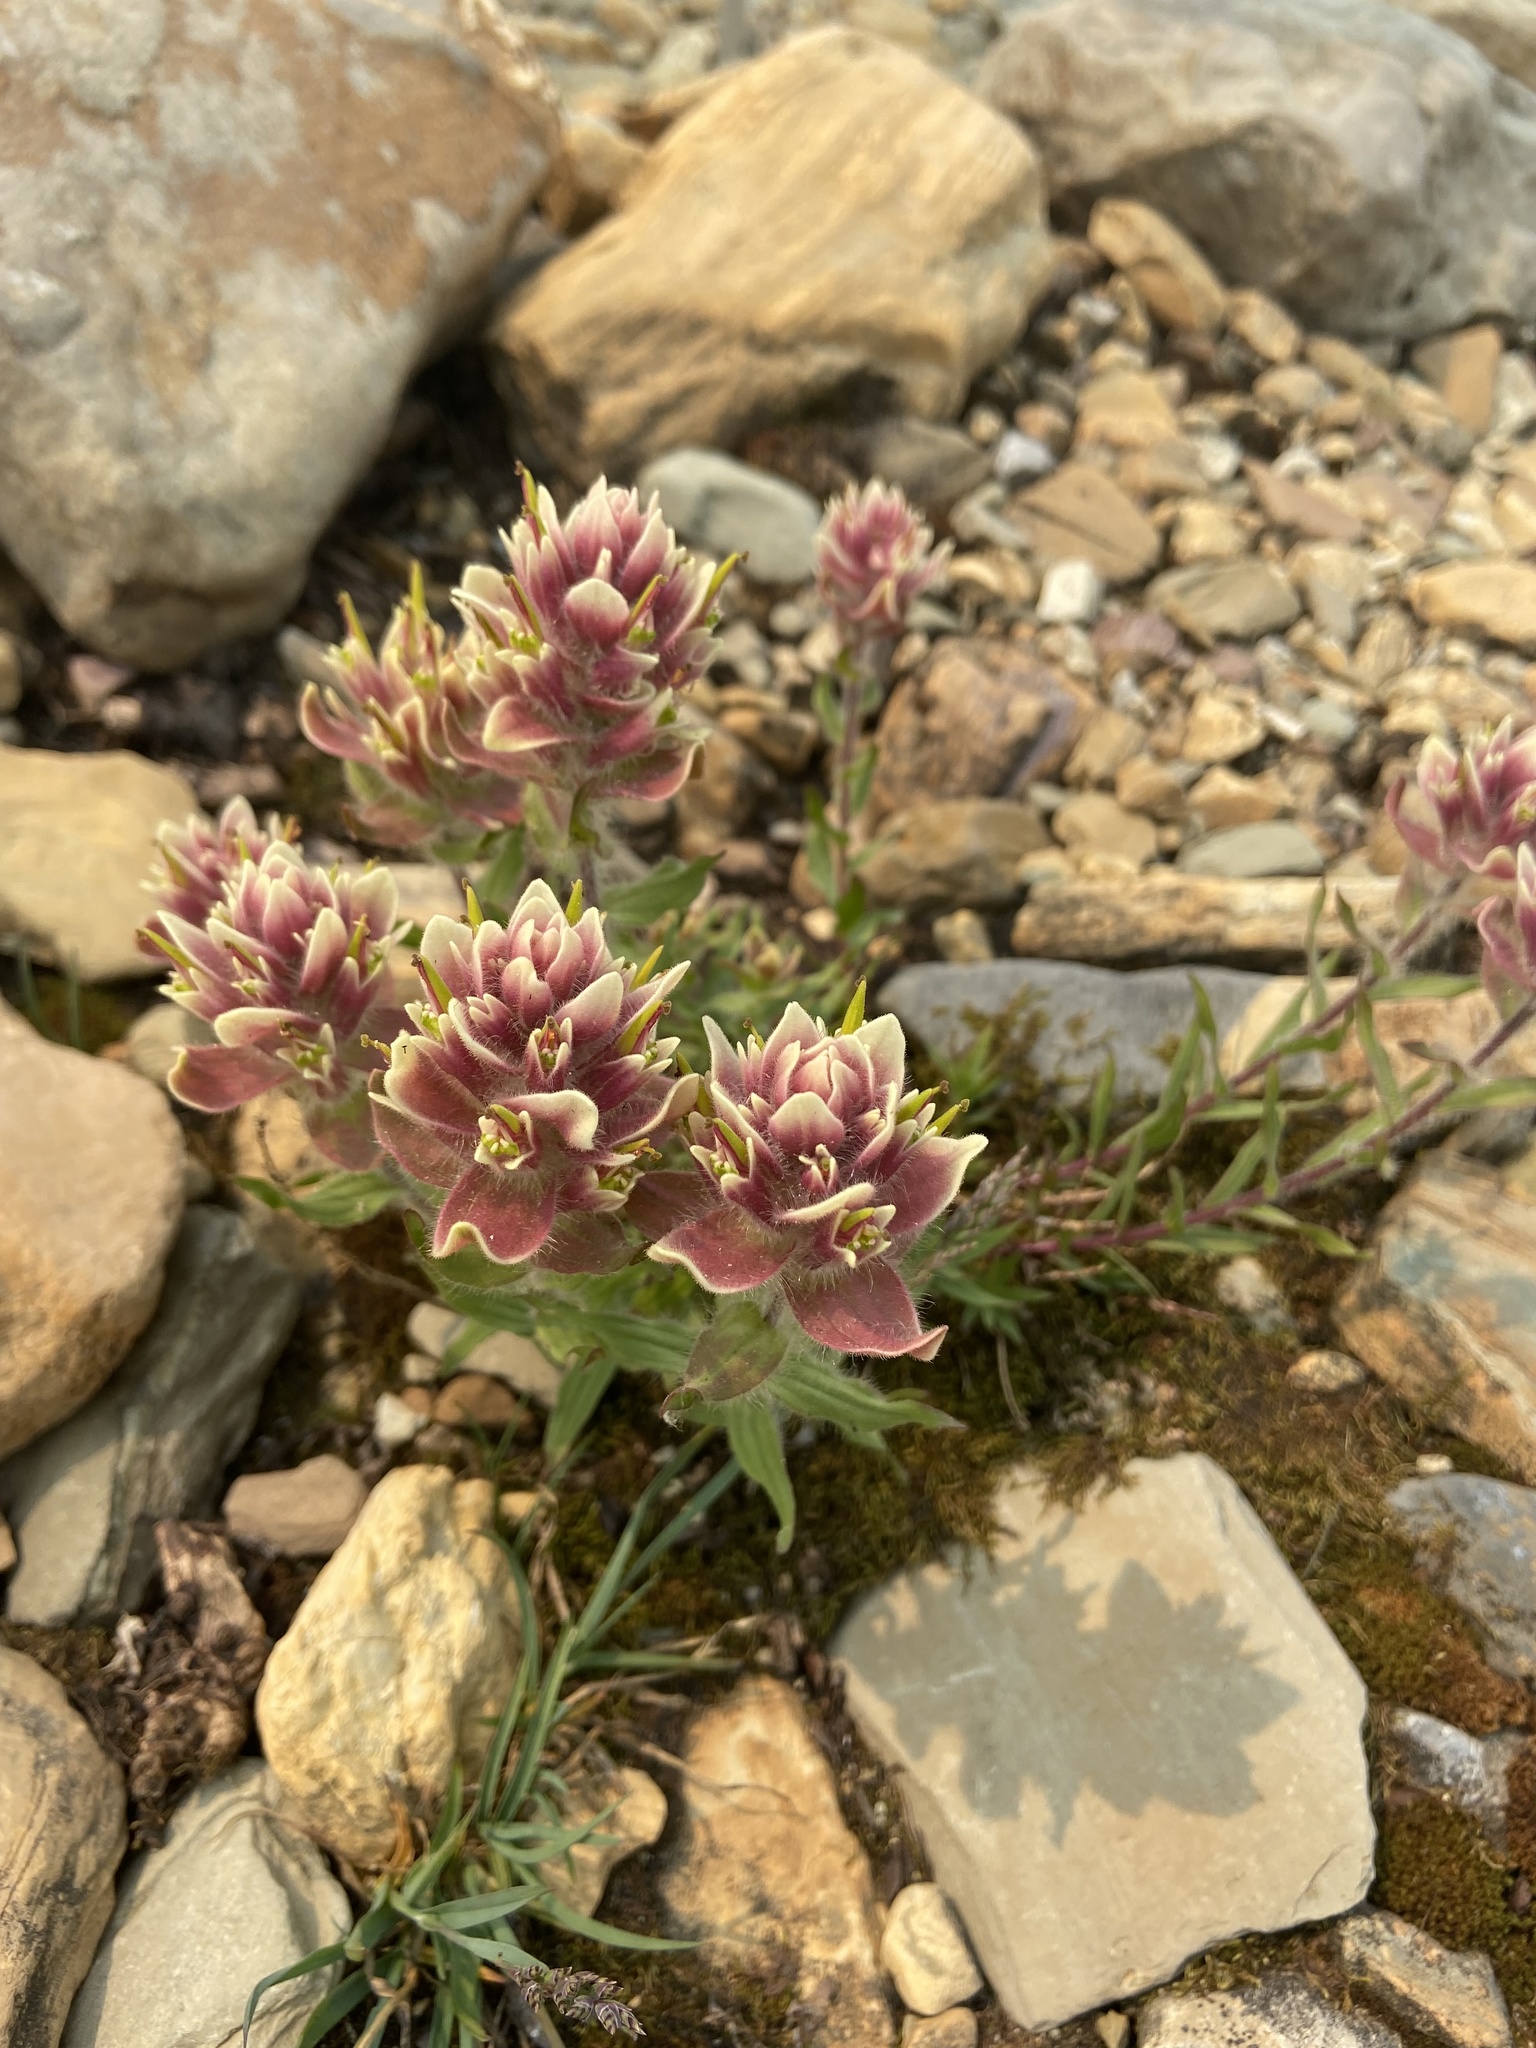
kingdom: Plantae
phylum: Tracheophyta
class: Magnoliopsida
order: Lamiales
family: Orobanchaceae
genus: Castilleja
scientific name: Castilleja occidentalis
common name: Western paintbrush
